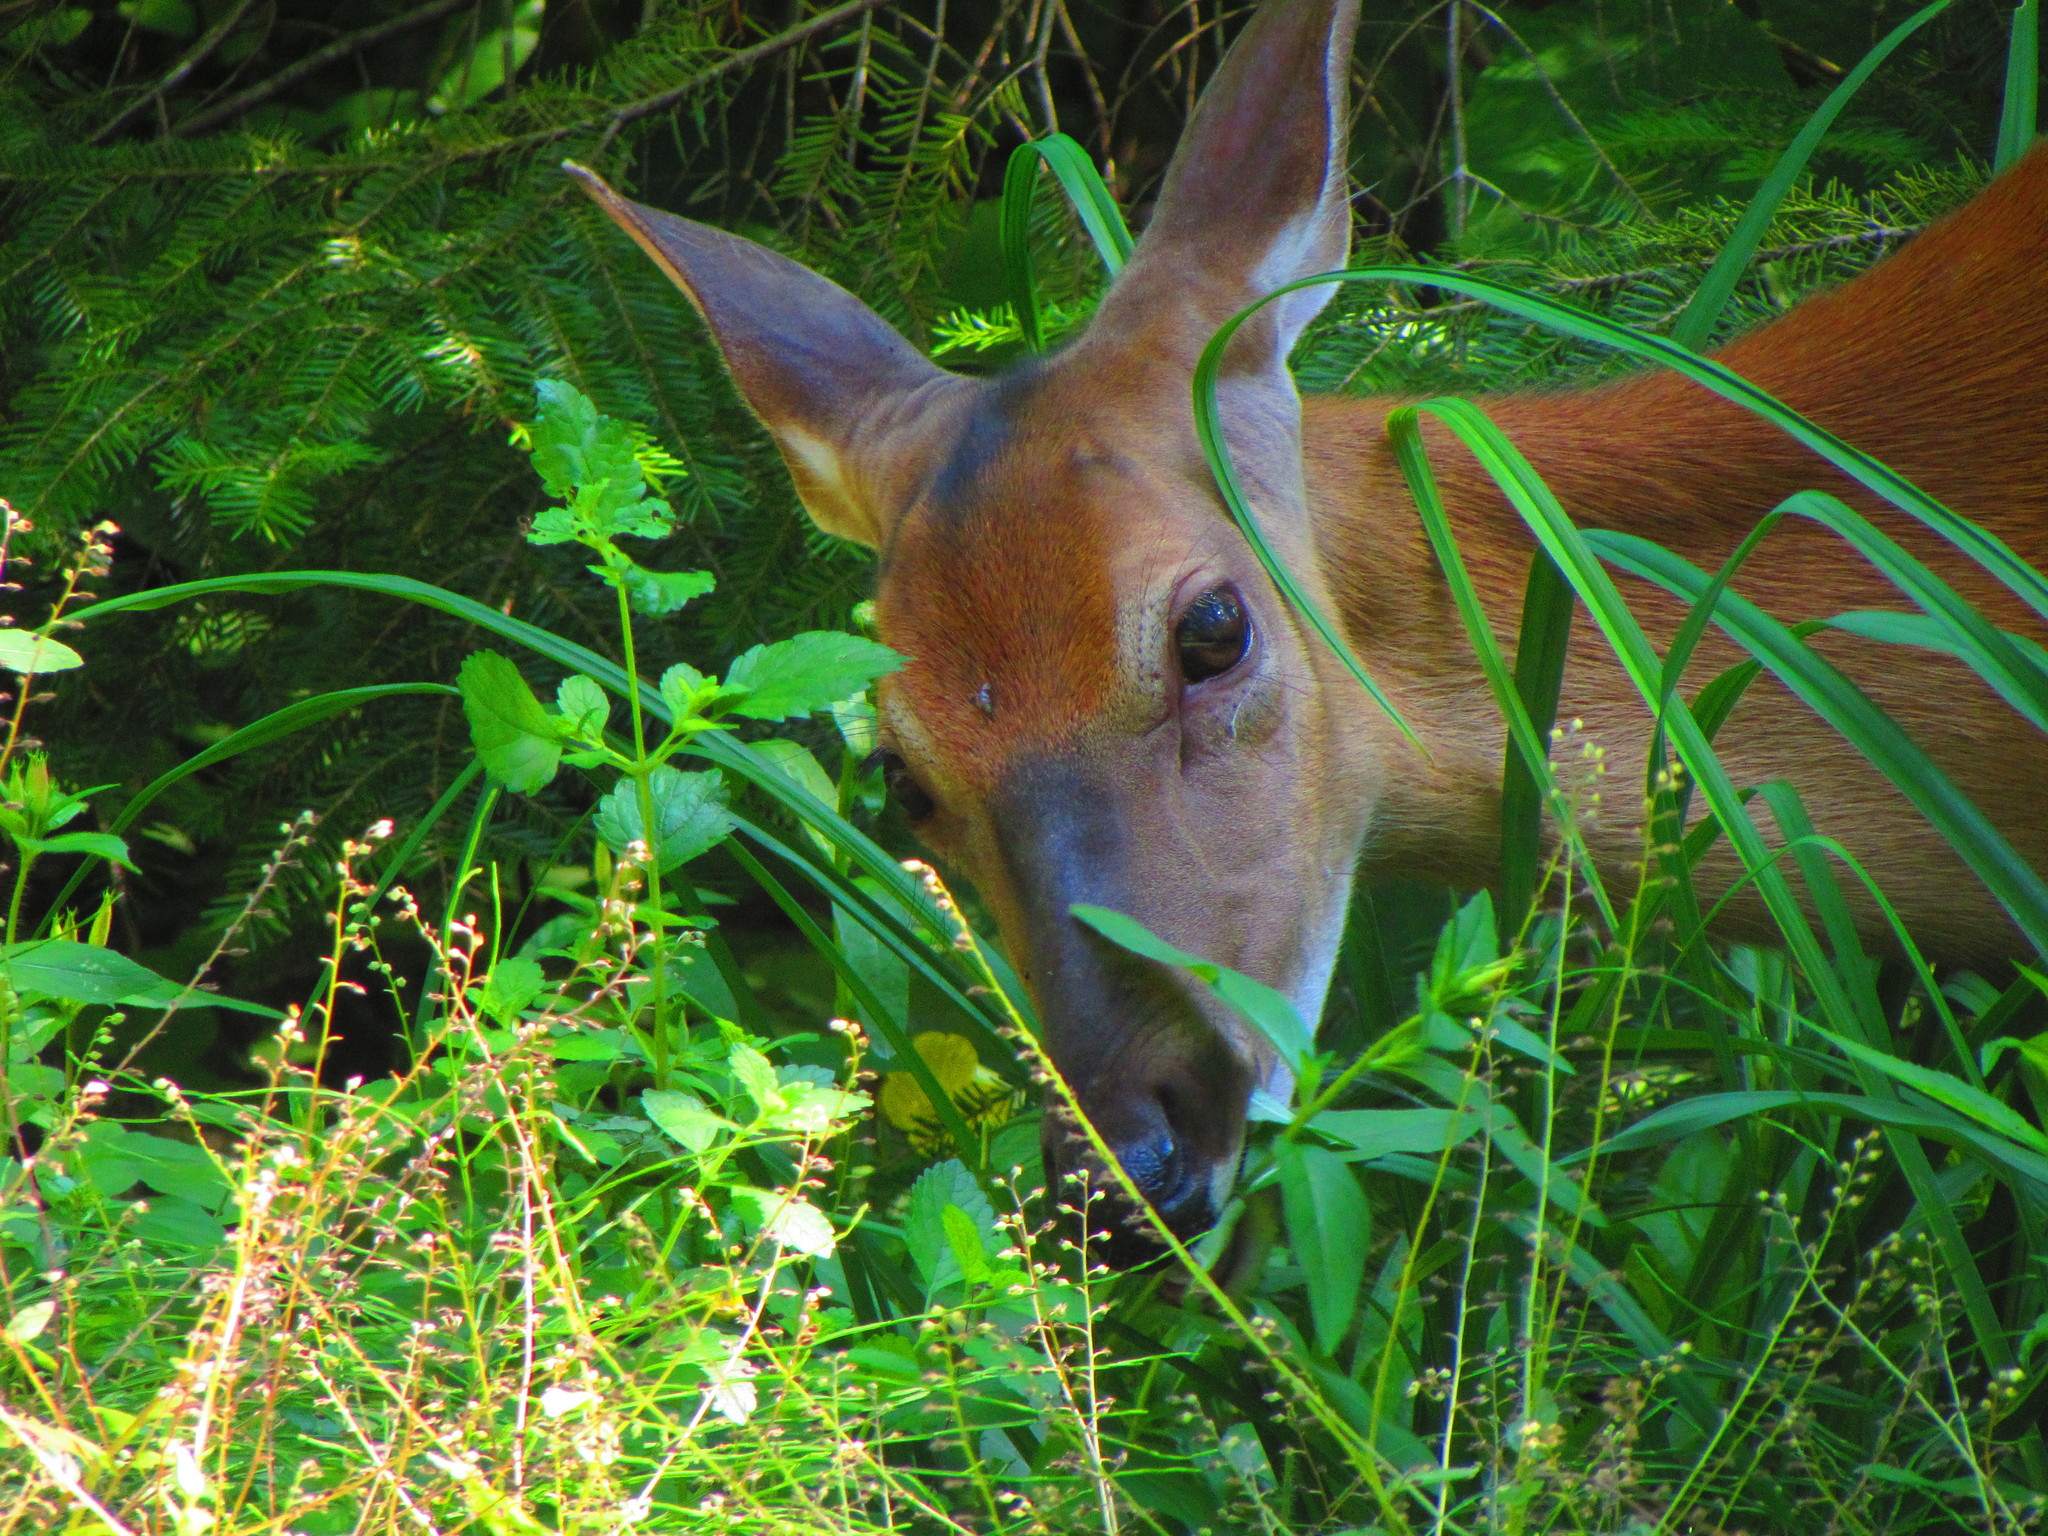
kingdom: Animalia
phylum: Chordata
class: Mammalia
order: Artiodactyla
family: Cervidae
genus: Odocoileus
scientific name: Odocoileus virginianus
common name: White-tailed deer
